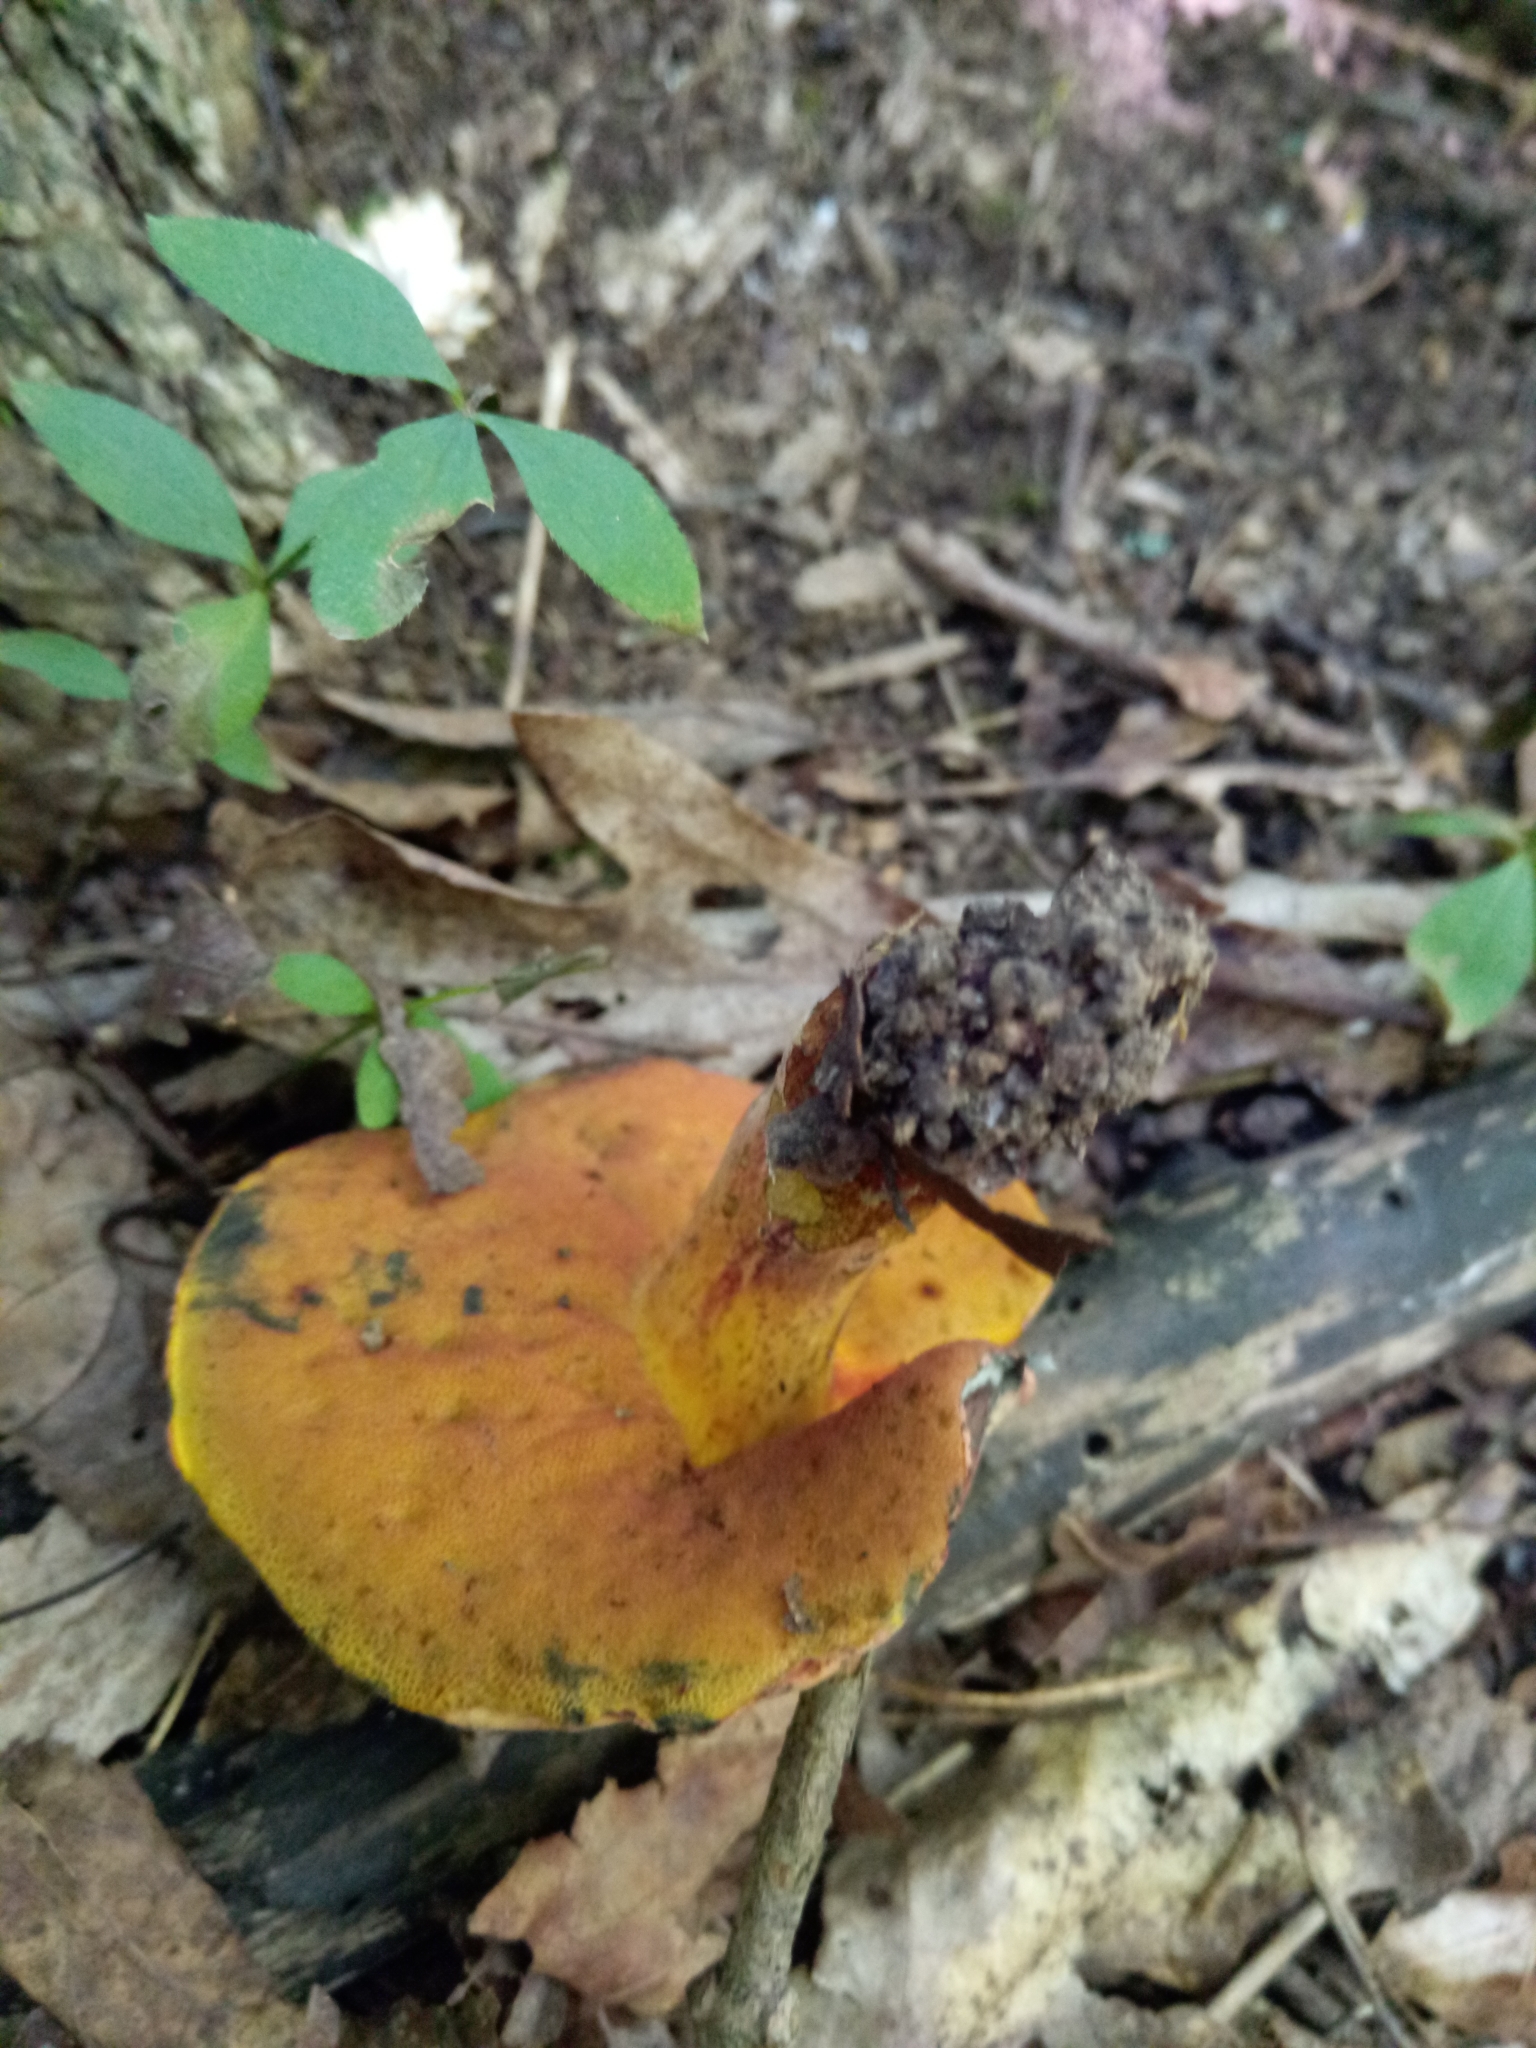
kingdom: Fungi
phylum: Basidiomycota
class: Agaricomycetes
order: Boletales
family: Boletaceae
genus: Neoboletus
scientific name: Neoboletus luridiformis
